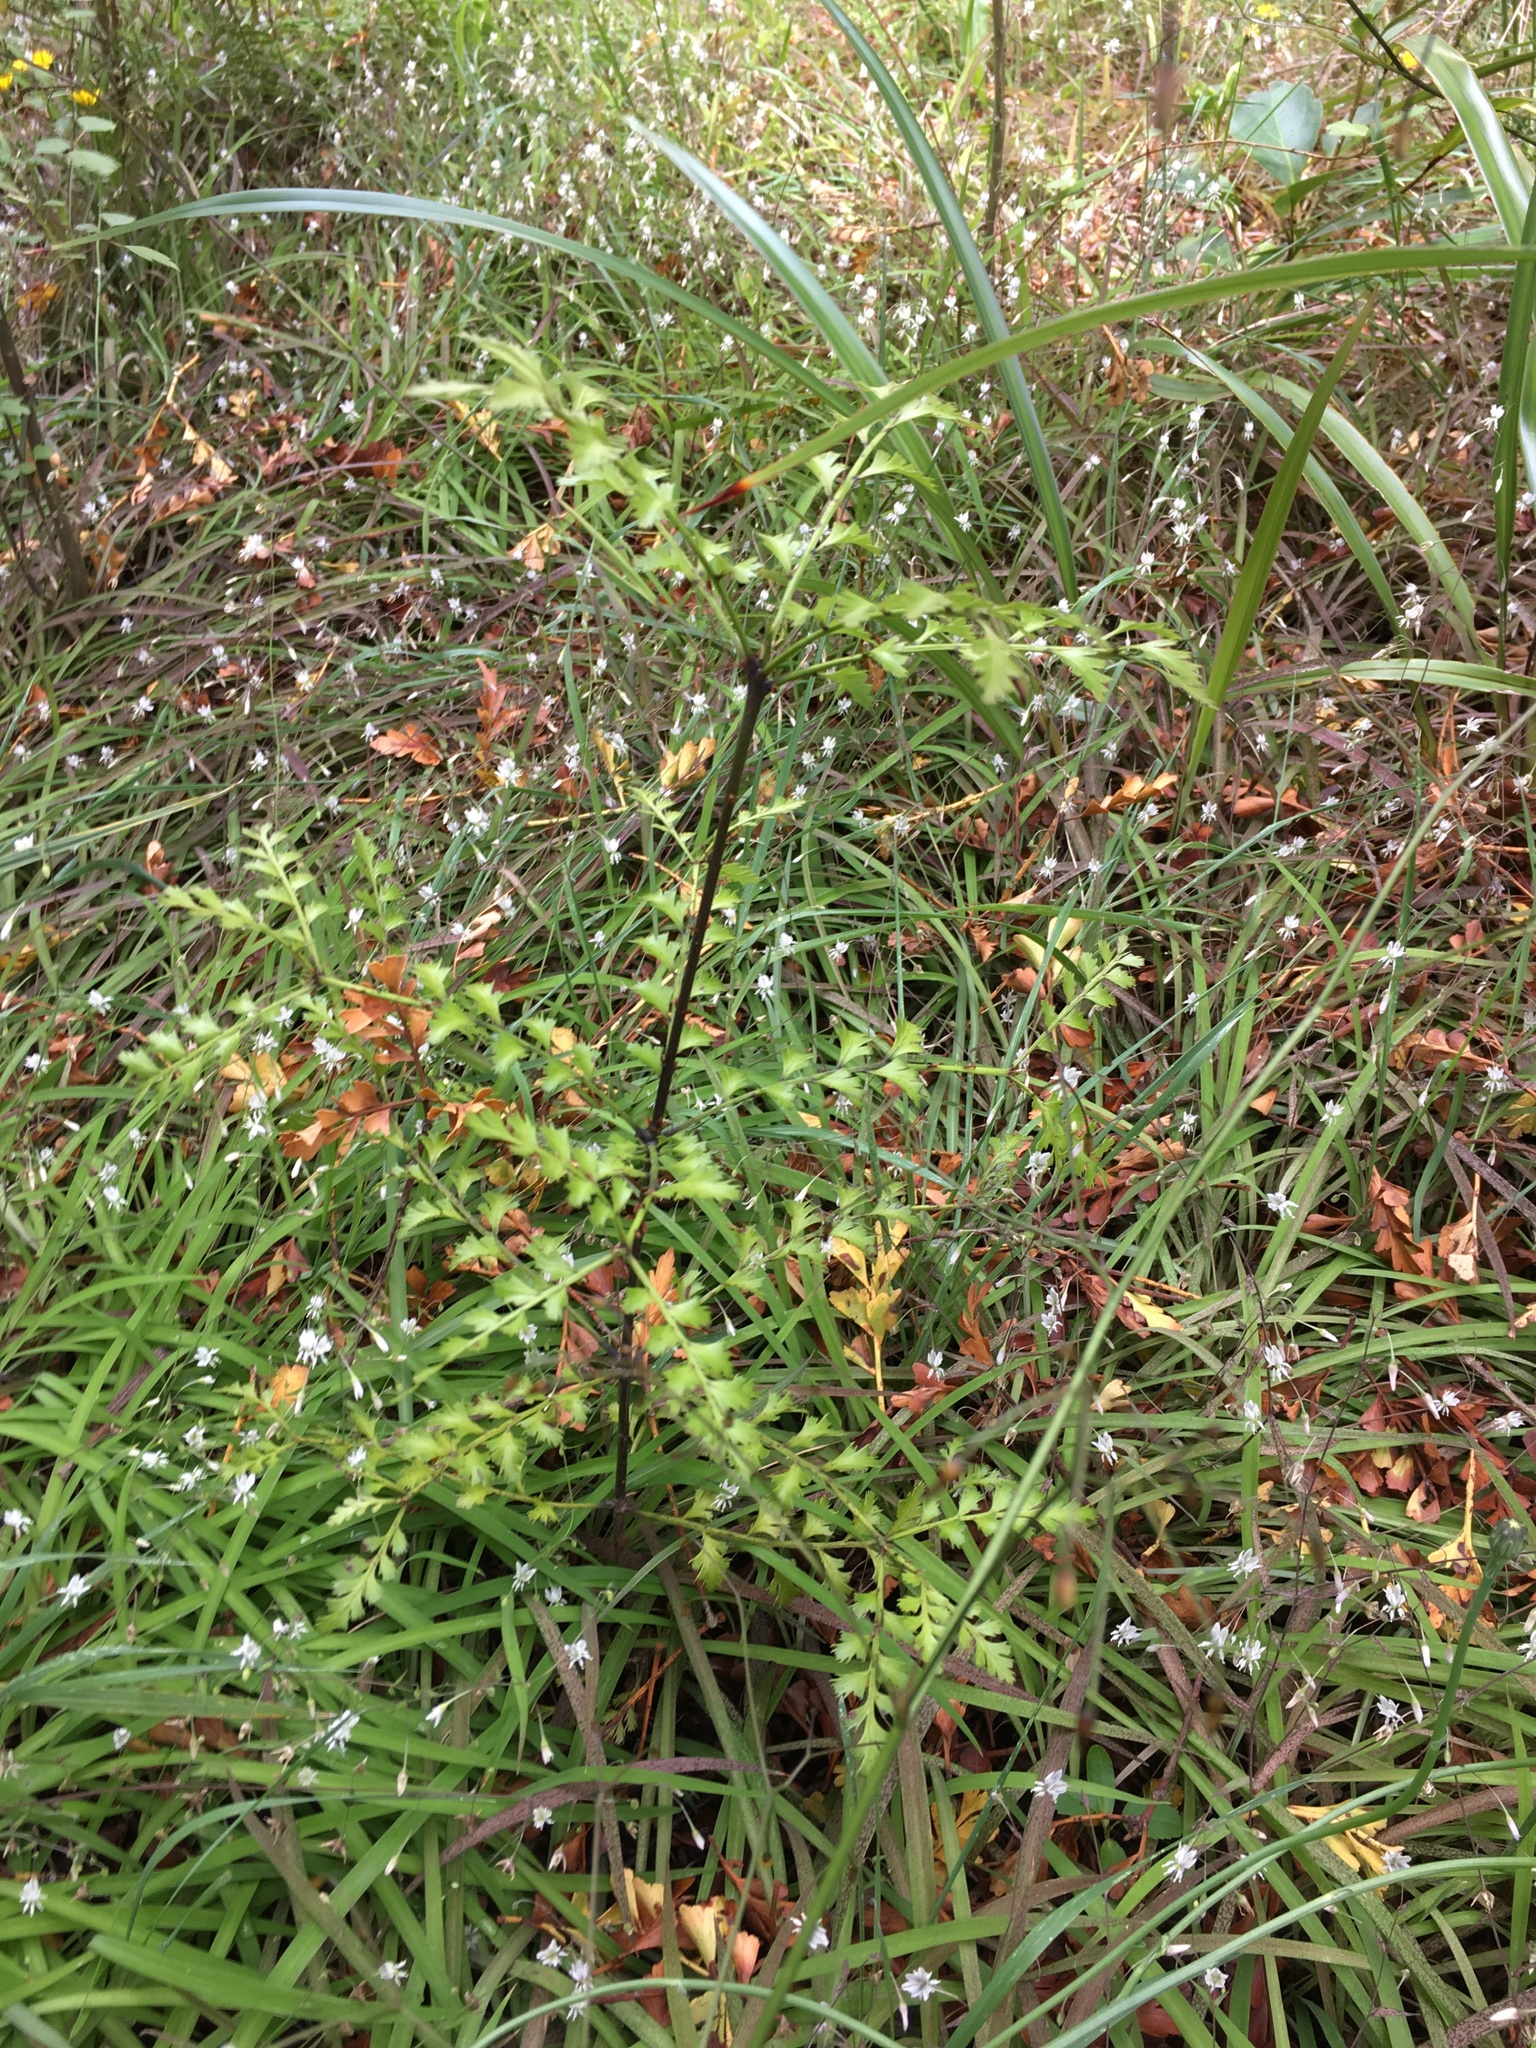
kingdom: Plantae
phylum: Tracheophyta
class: Pinopsida
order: Pinales
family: Phyllocladaceae
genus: Phyllocladus
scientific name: Phyllocladus trichomanoides
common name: Celery pine
